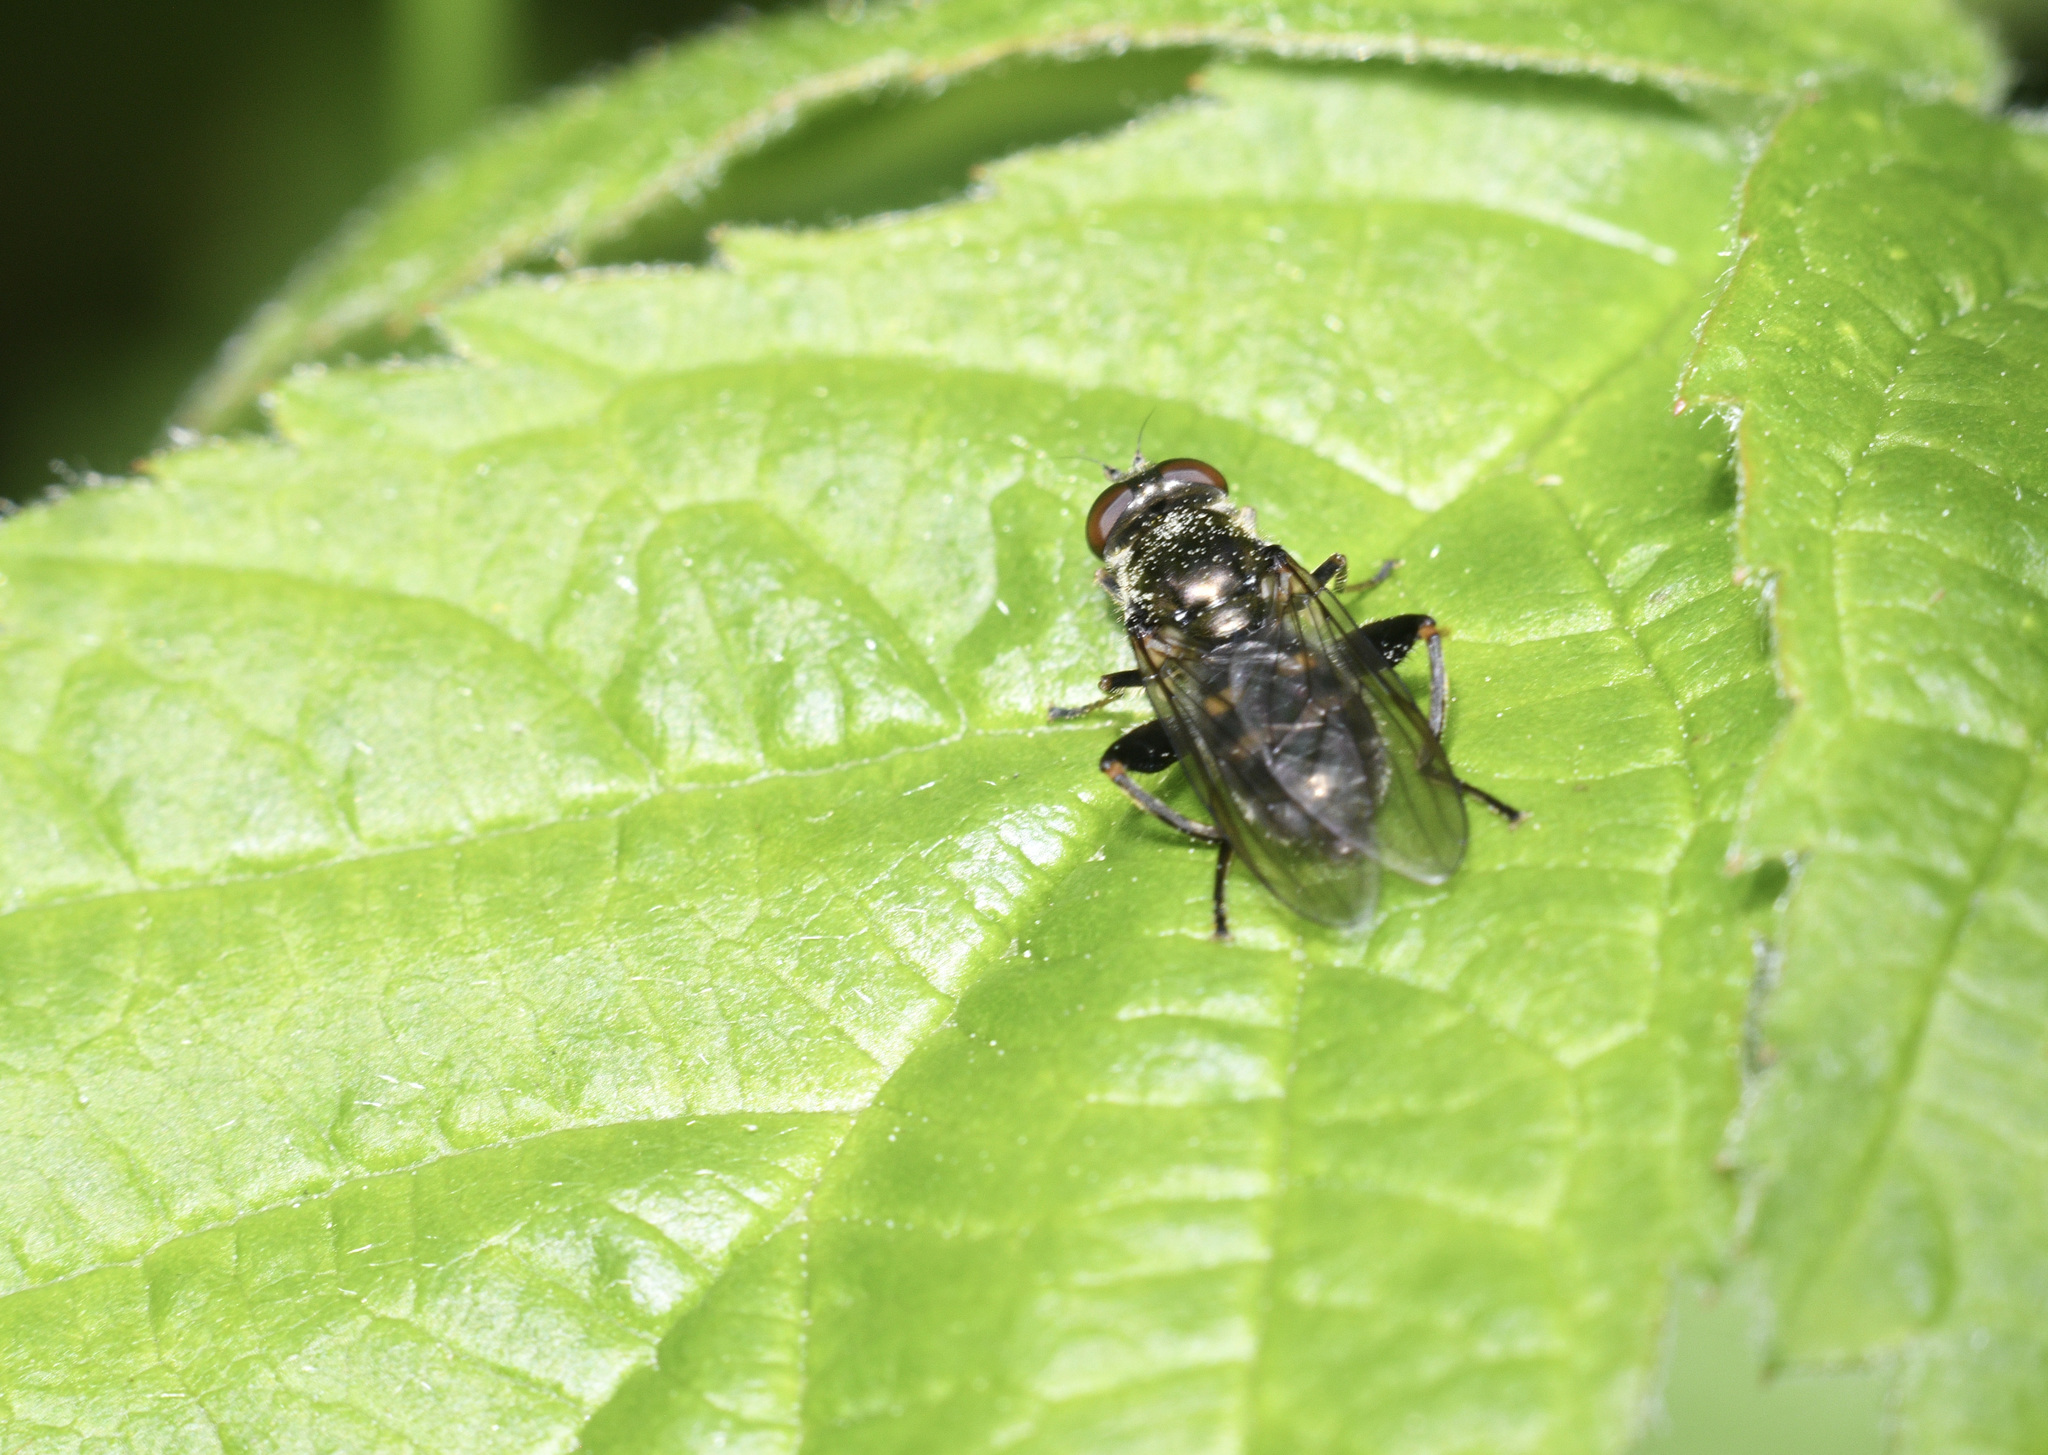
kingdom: Animalia
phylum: Arthropoda
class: Insecta
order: Diptera
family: Syrphidae
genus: Chalcosyrphus
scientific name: Chalcosyrphus nemorum
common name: Dusky-banded forest fly
